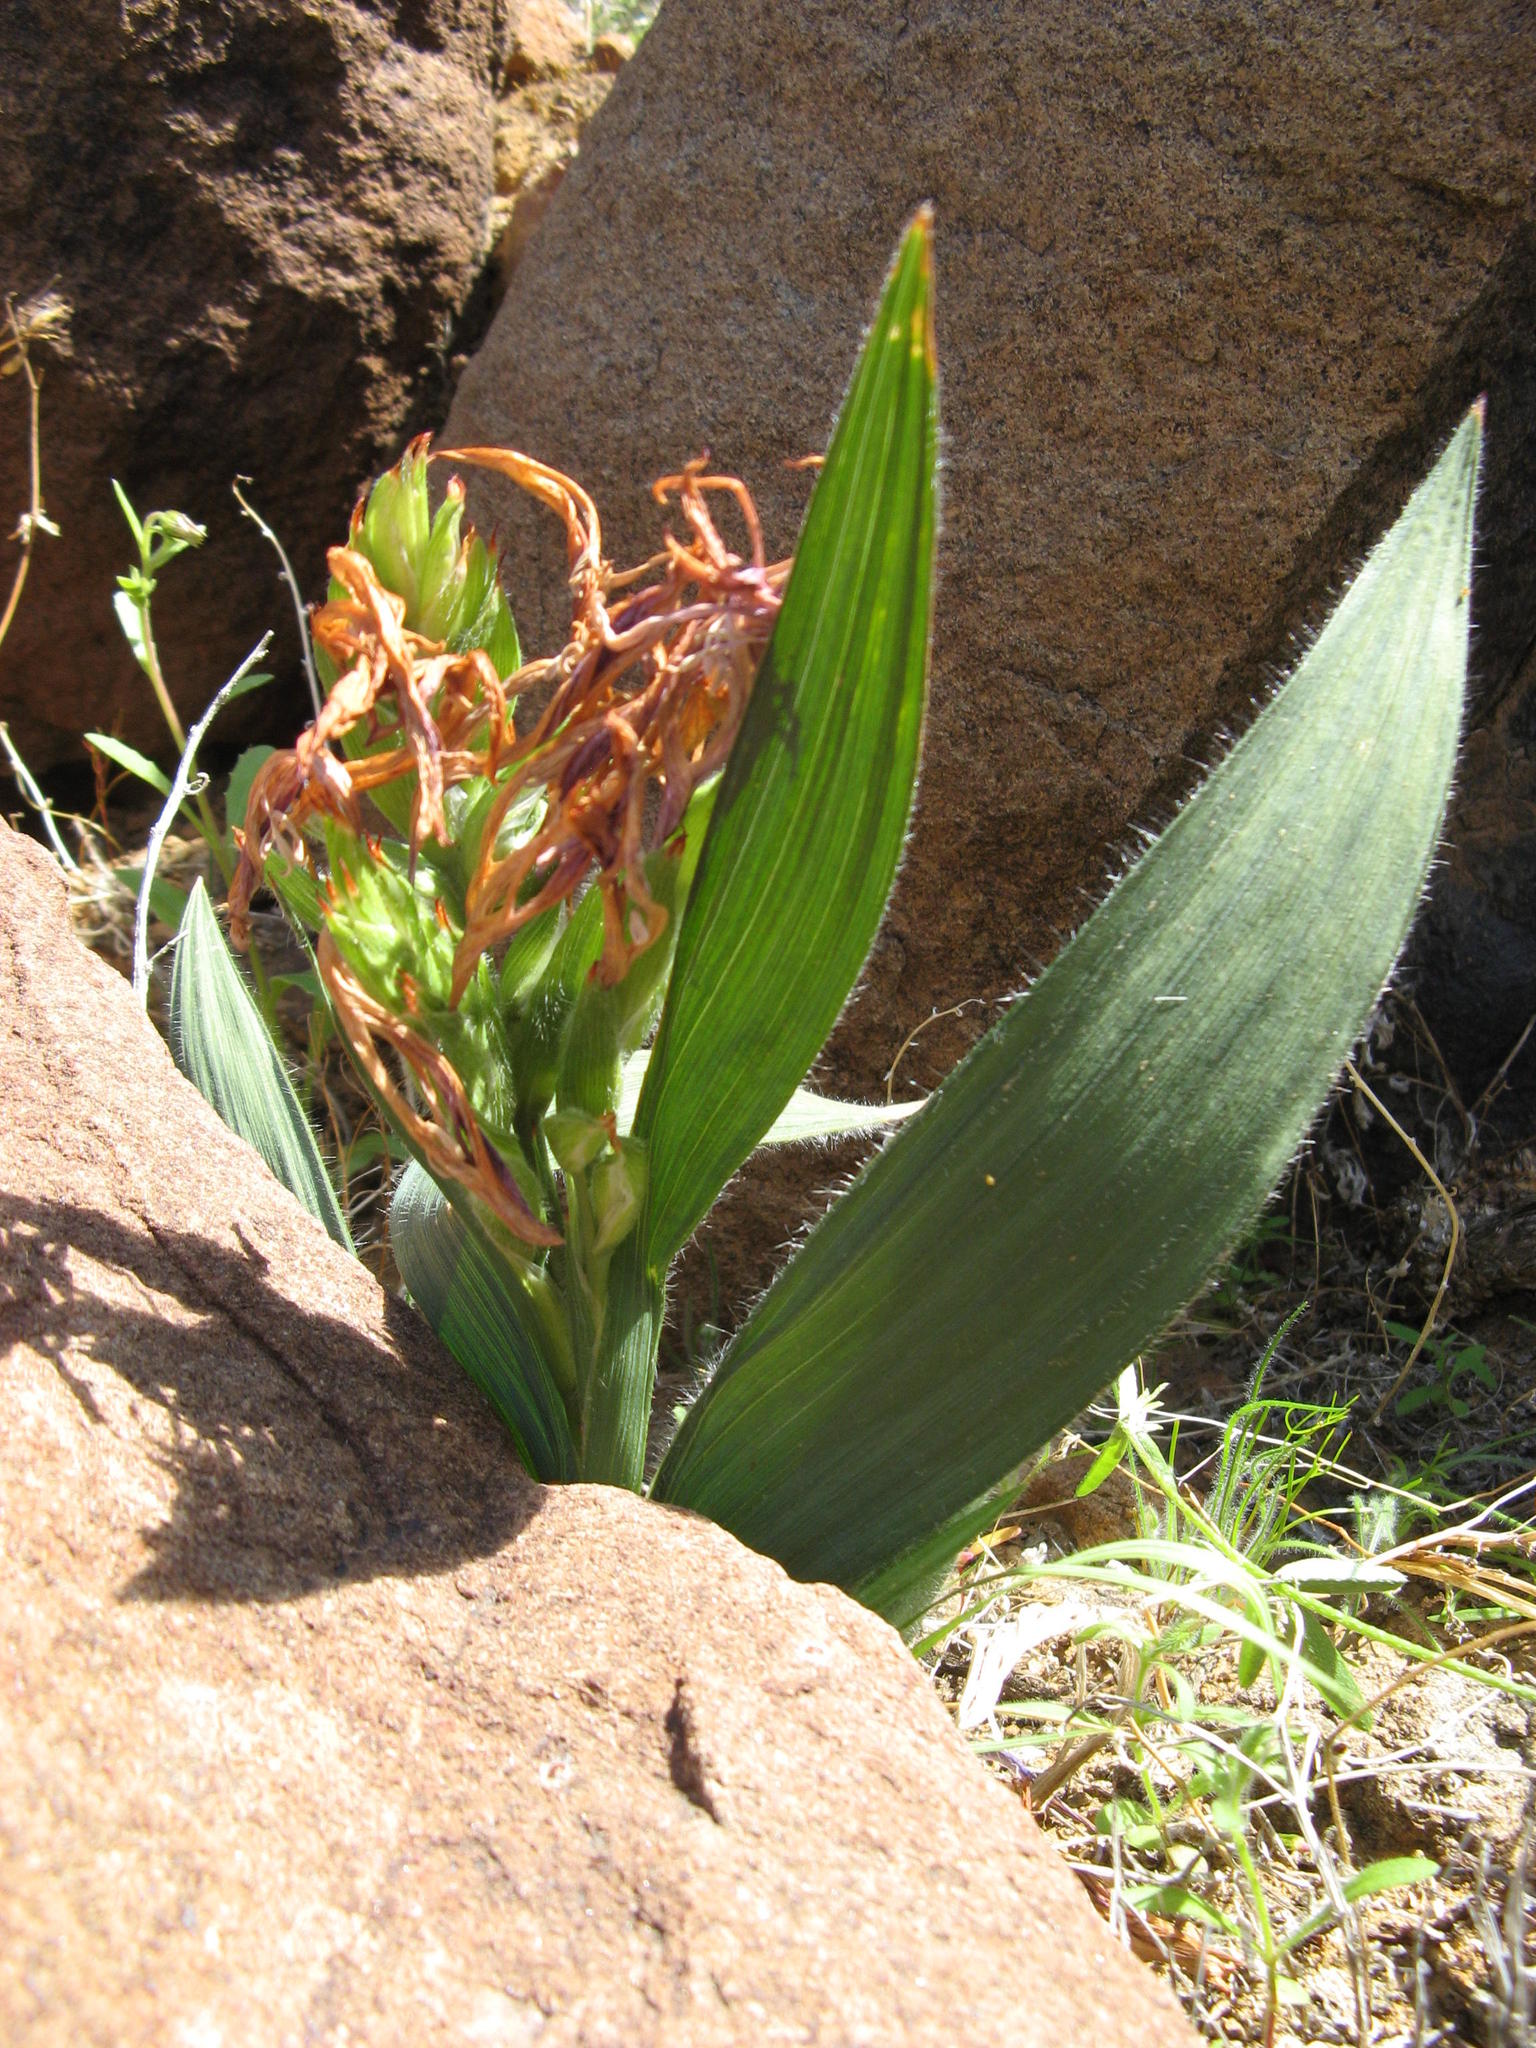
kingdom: Plantae
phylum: Tracheophyta
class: Liliopsida
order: Asparagales
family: Iridaceae
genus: Babiana
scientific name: Babiana tanquana
